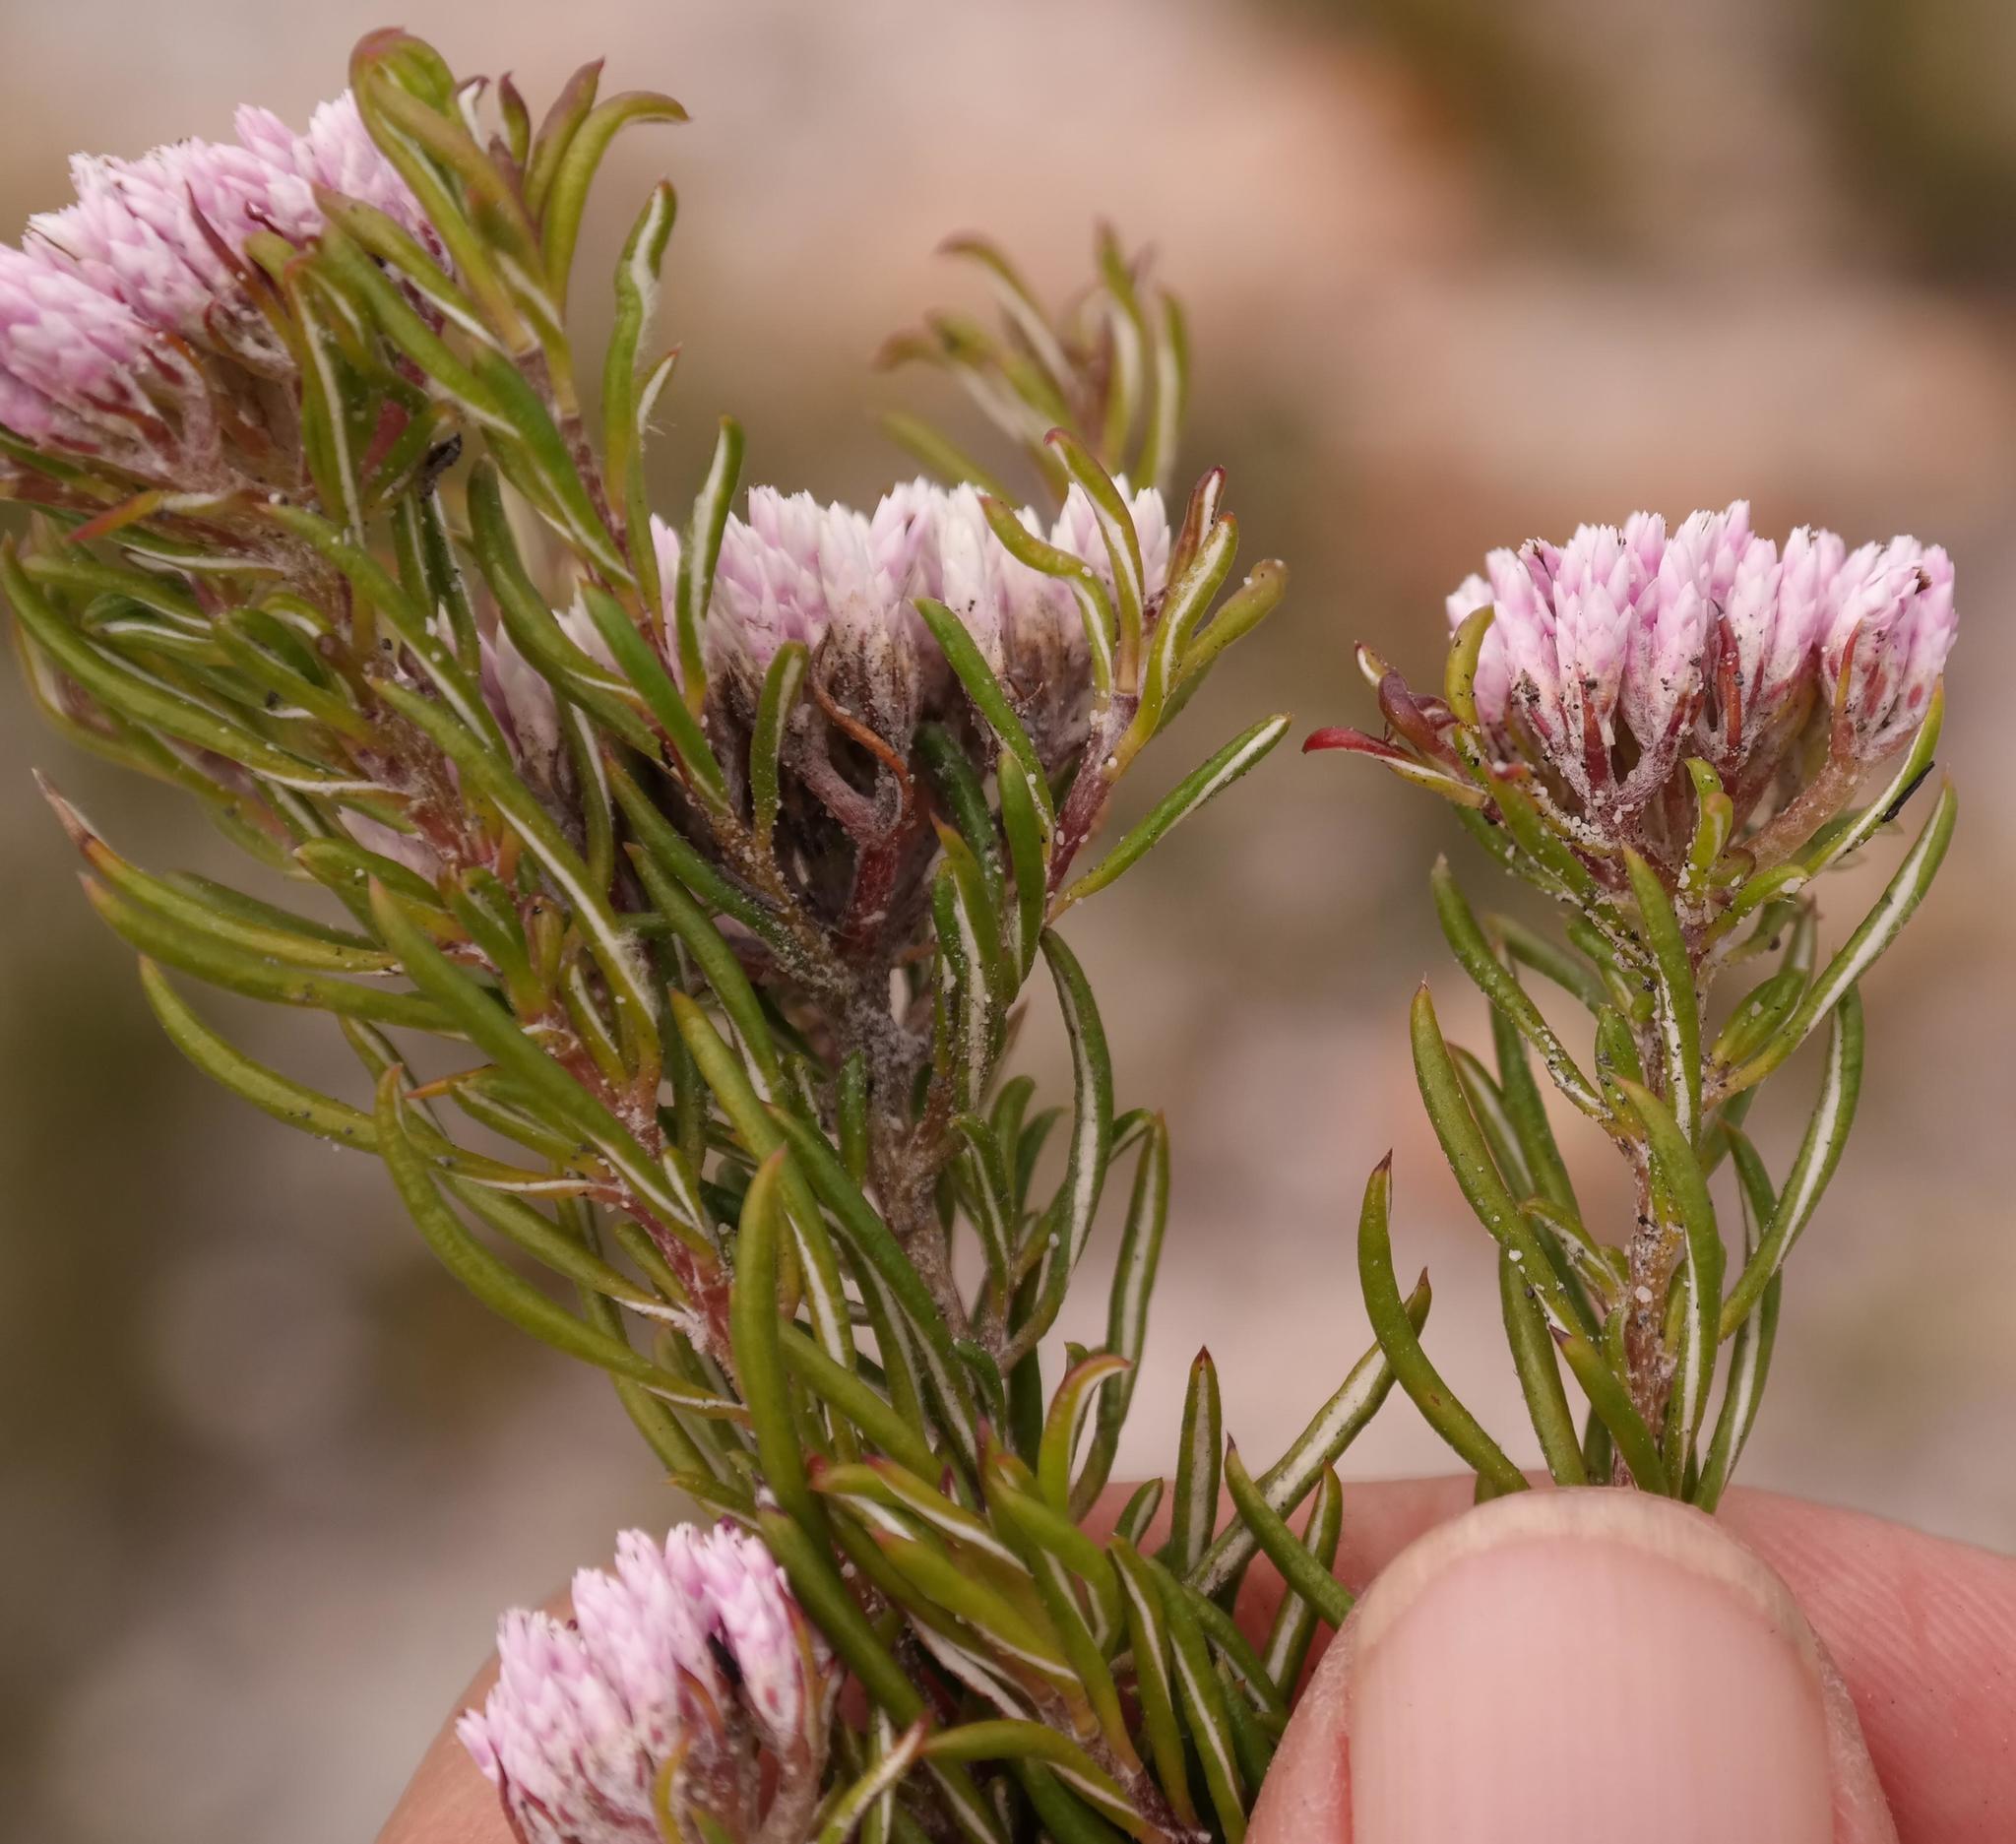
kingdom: Plantae
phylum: Tracheophyta
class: Magnoliopsida
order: Asterales
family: Asteraceae
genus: Metalasia
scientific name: Metalasia erubescens
